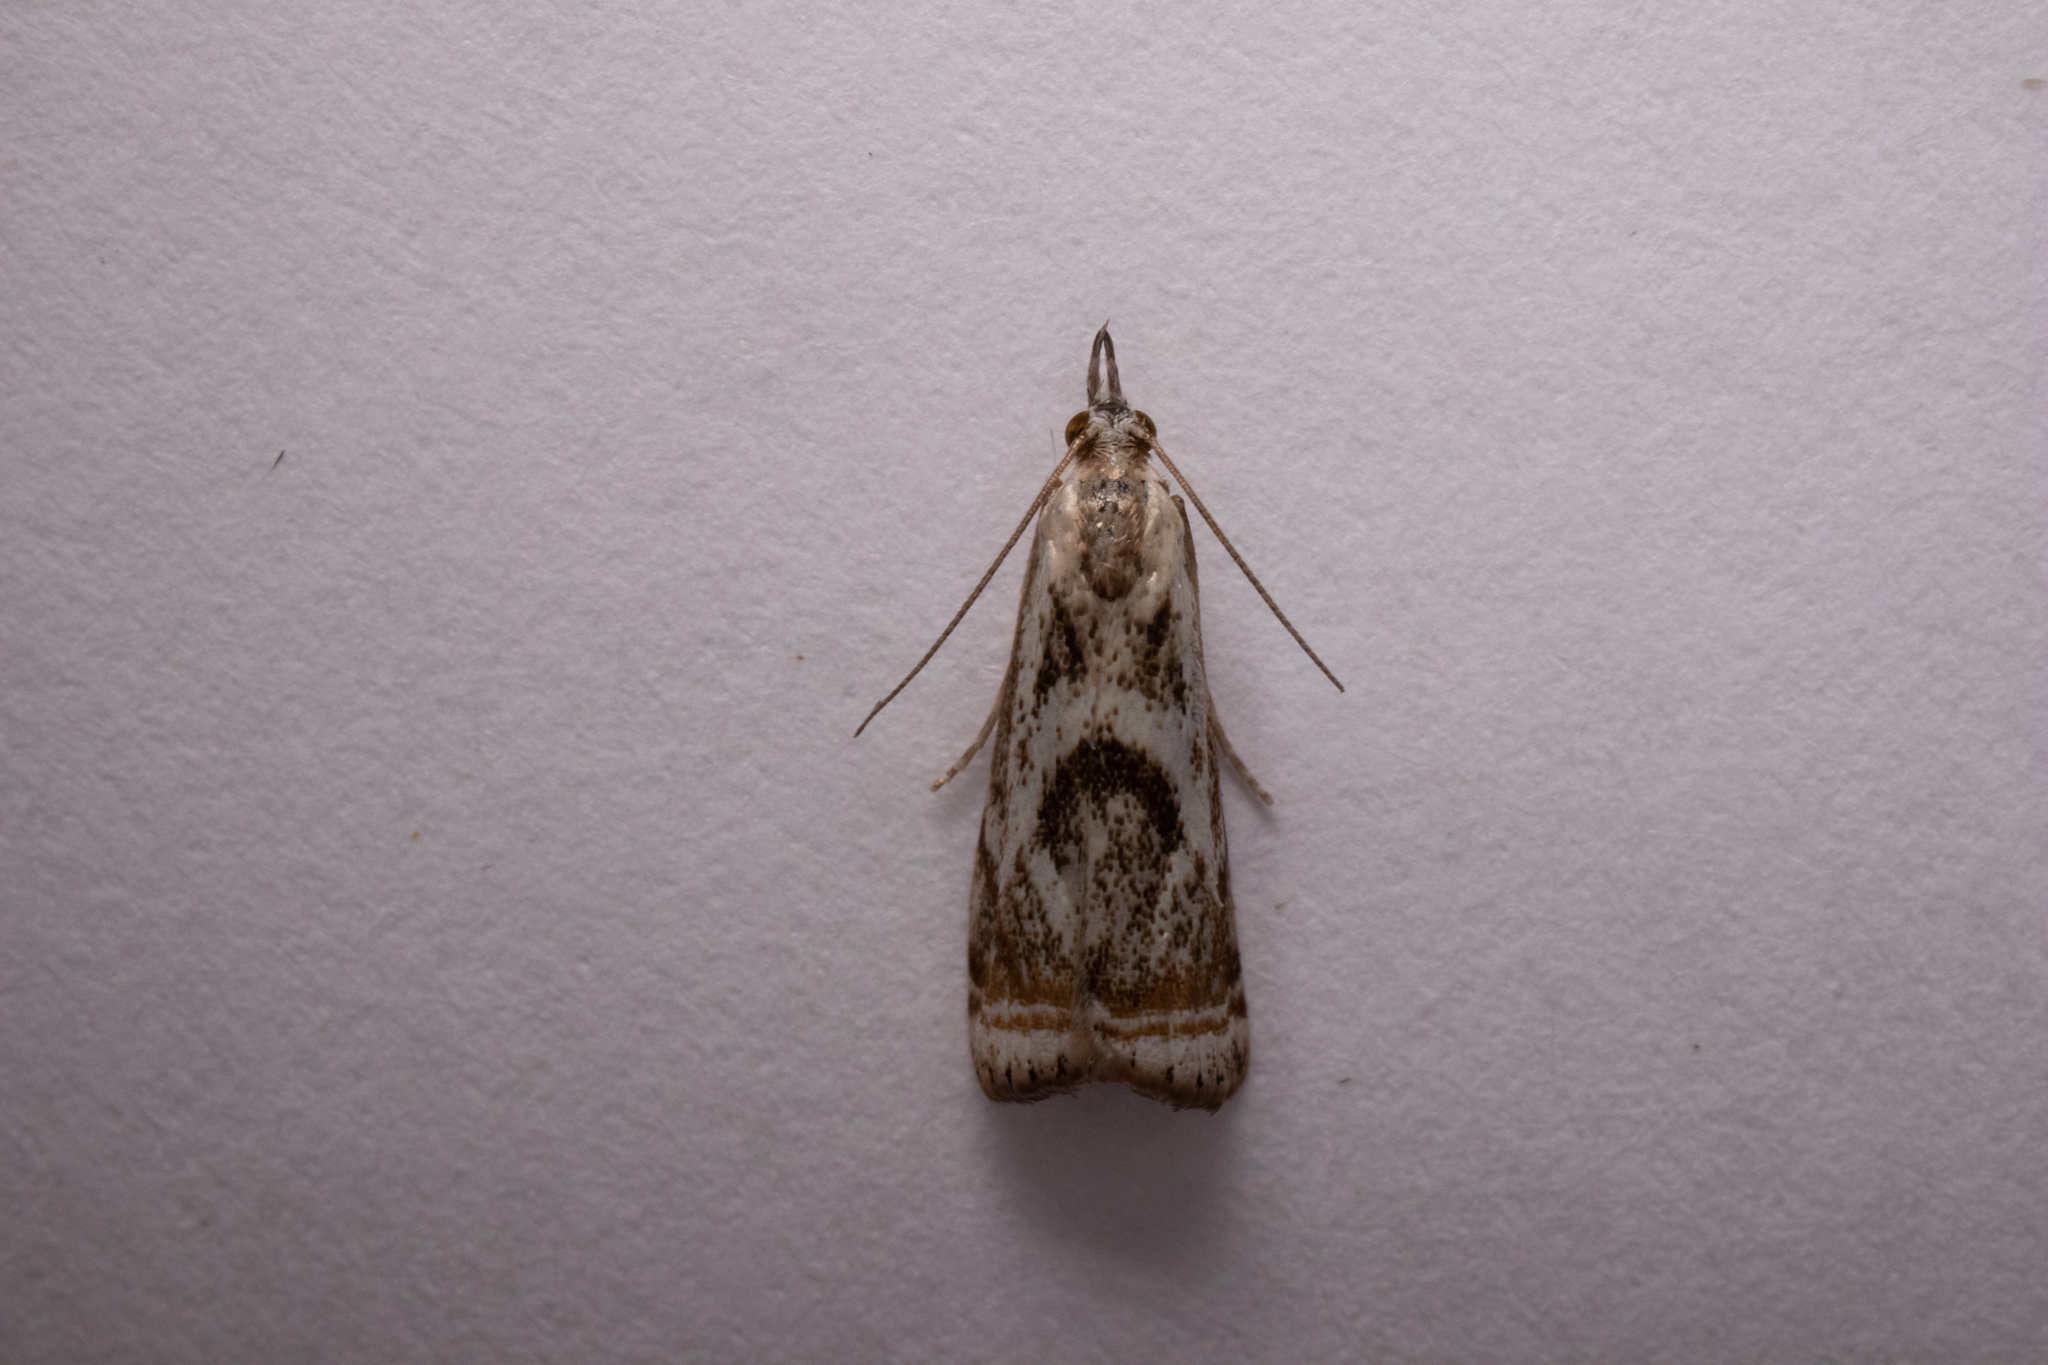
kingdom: Animalia
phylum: Arthropoda
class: Insecta
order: Lepidoptera
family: Crambidae
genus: Microcrambus
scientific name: Microcrambus elegans
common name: Elegant grass-veneer
